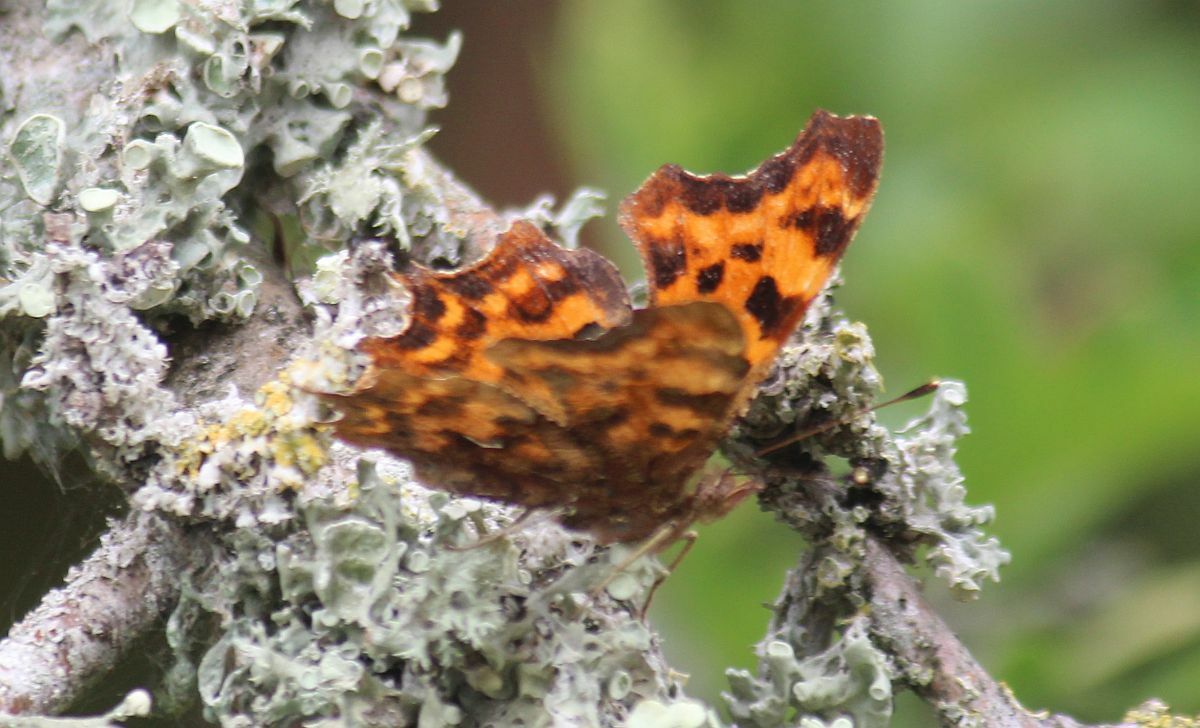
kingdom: Animalia
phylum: Arthropoda
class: Insecta
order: Lepidoptera
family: Nymphalidae
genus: Polygonia
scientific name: Polygonia c-album
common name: Comma
